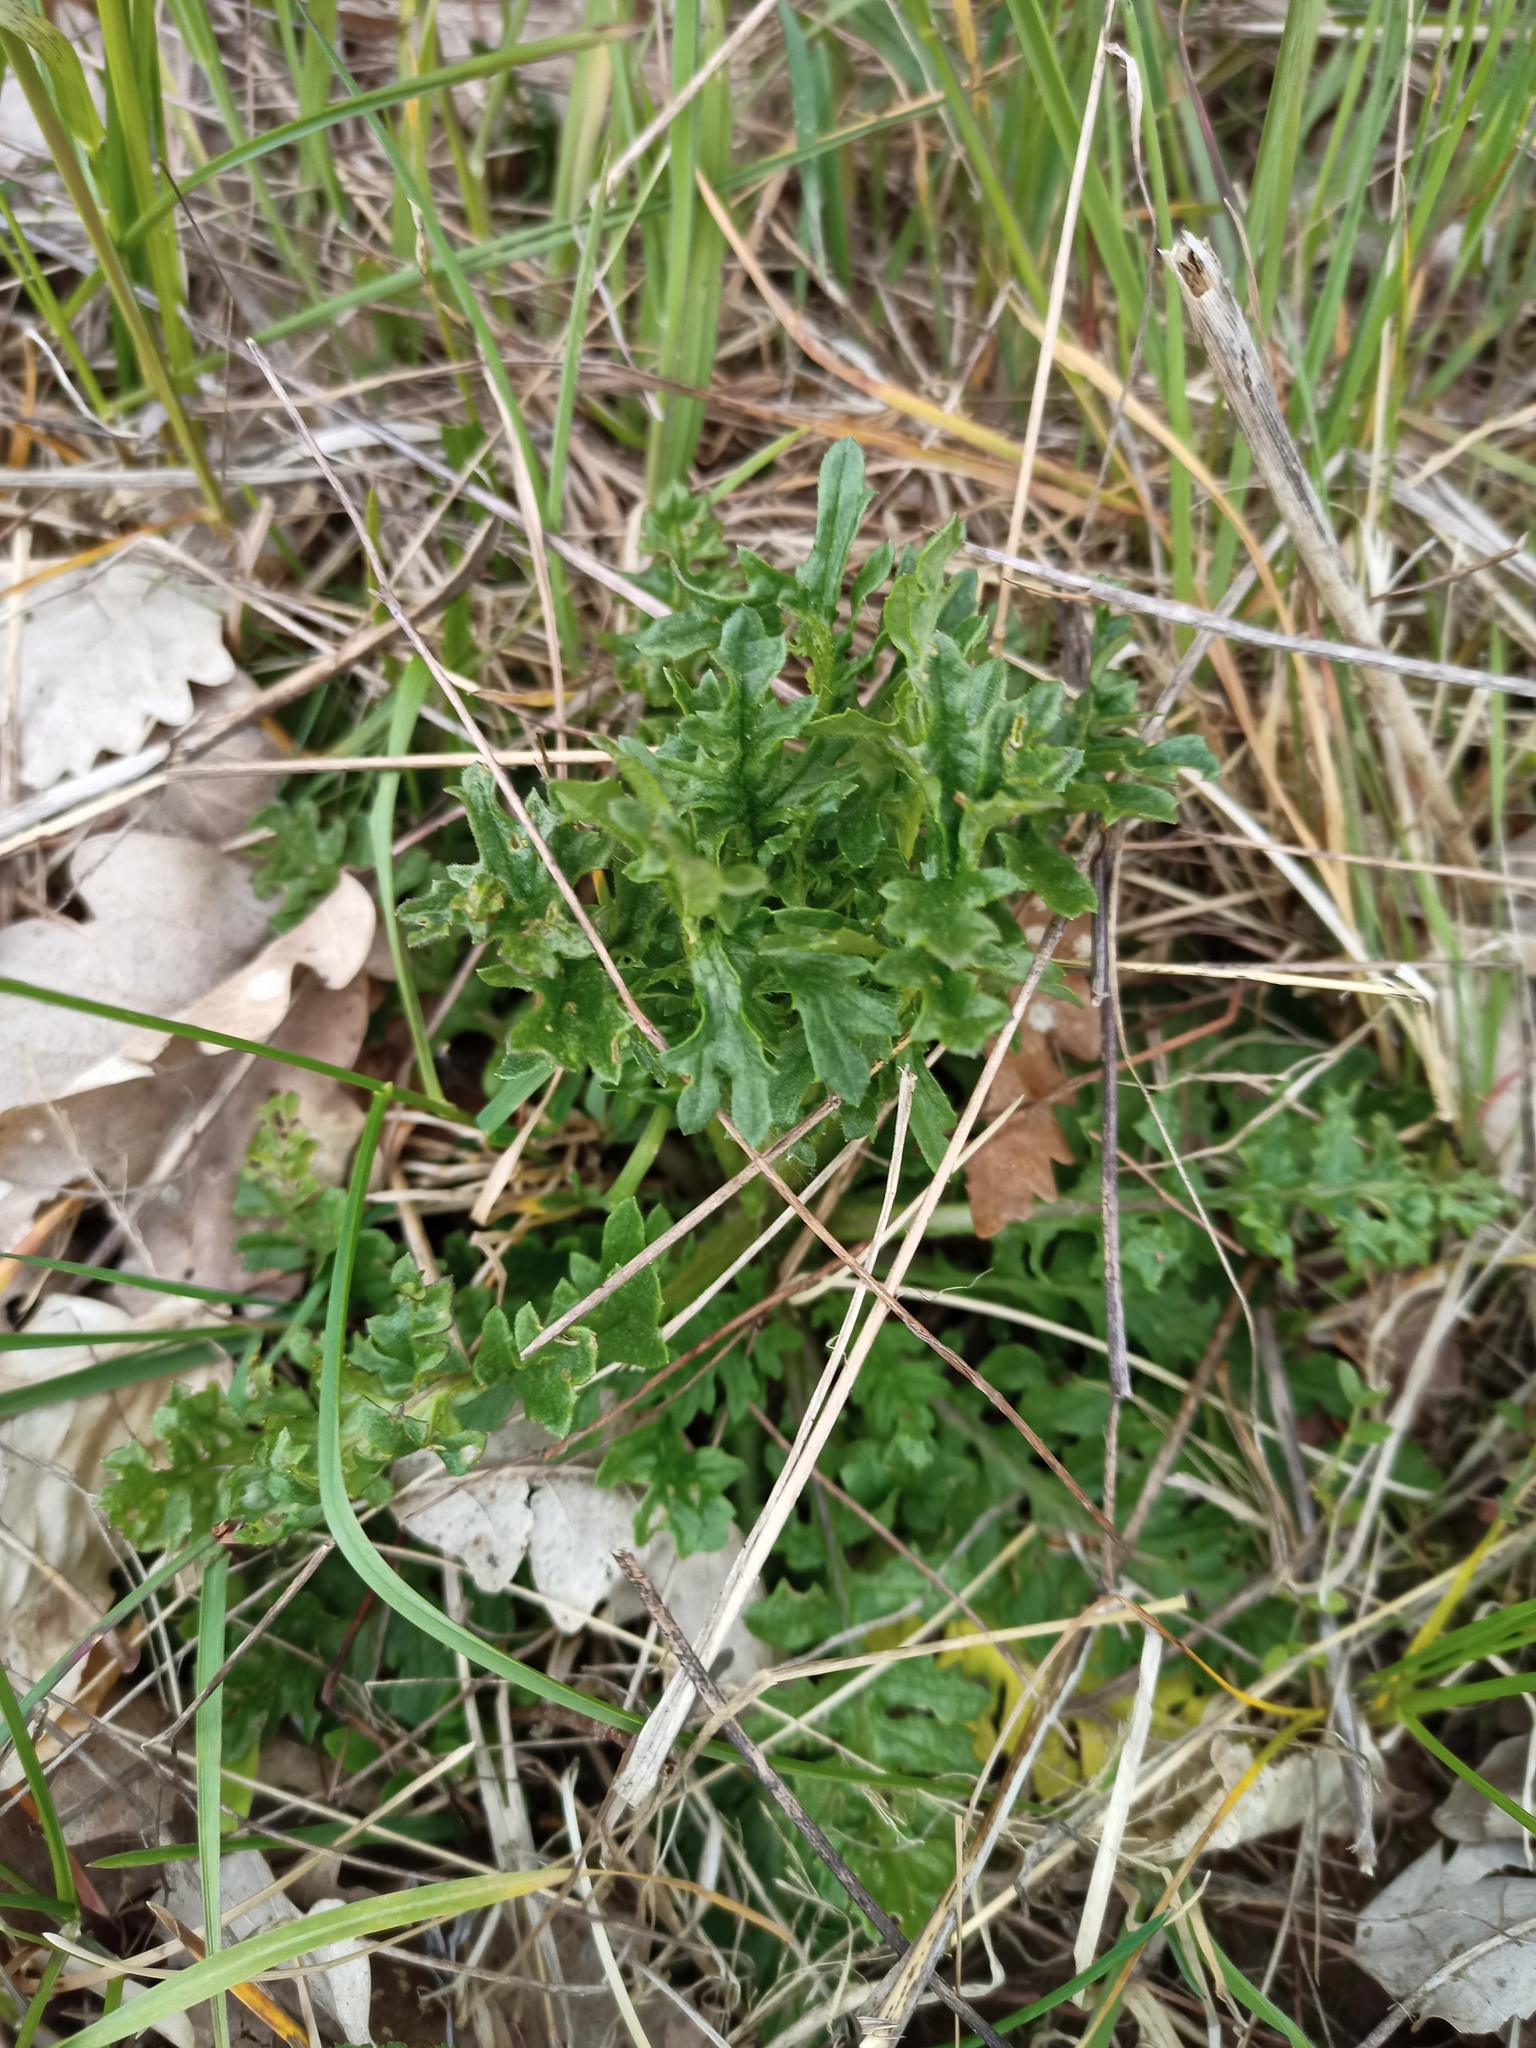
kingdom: Plantae
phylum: Tracheophyta
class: Magnoliopsida
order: Asterales
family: Asteraceae
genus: Jacobaea
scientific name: Jacobaea vulgaris
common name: Stinking willie
